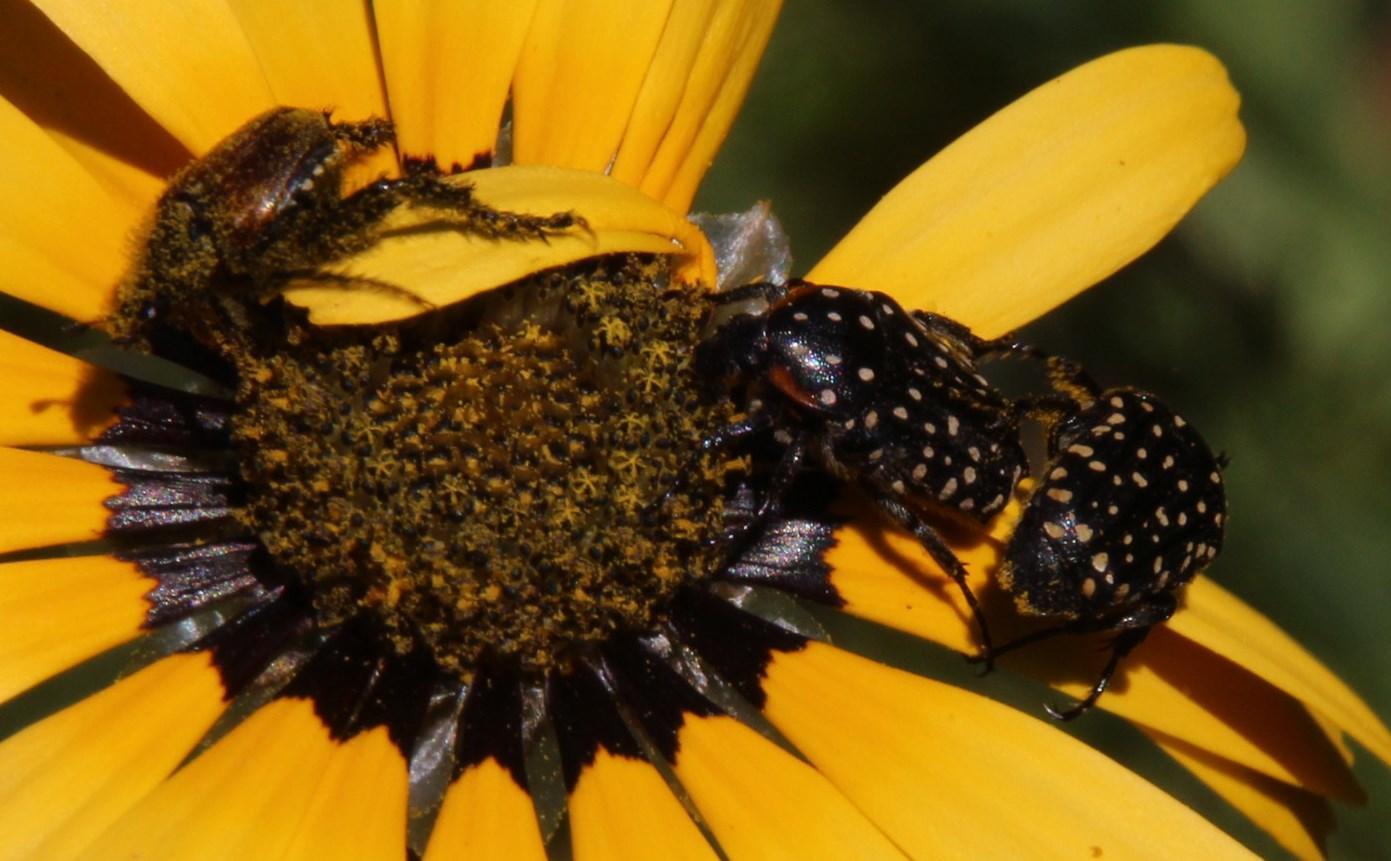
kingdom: Animalia
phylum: Arthropoda
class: Insecta
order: Coleoptera
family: Scarabaeidae
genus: Oxythyrea
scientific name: Oxythyrea
